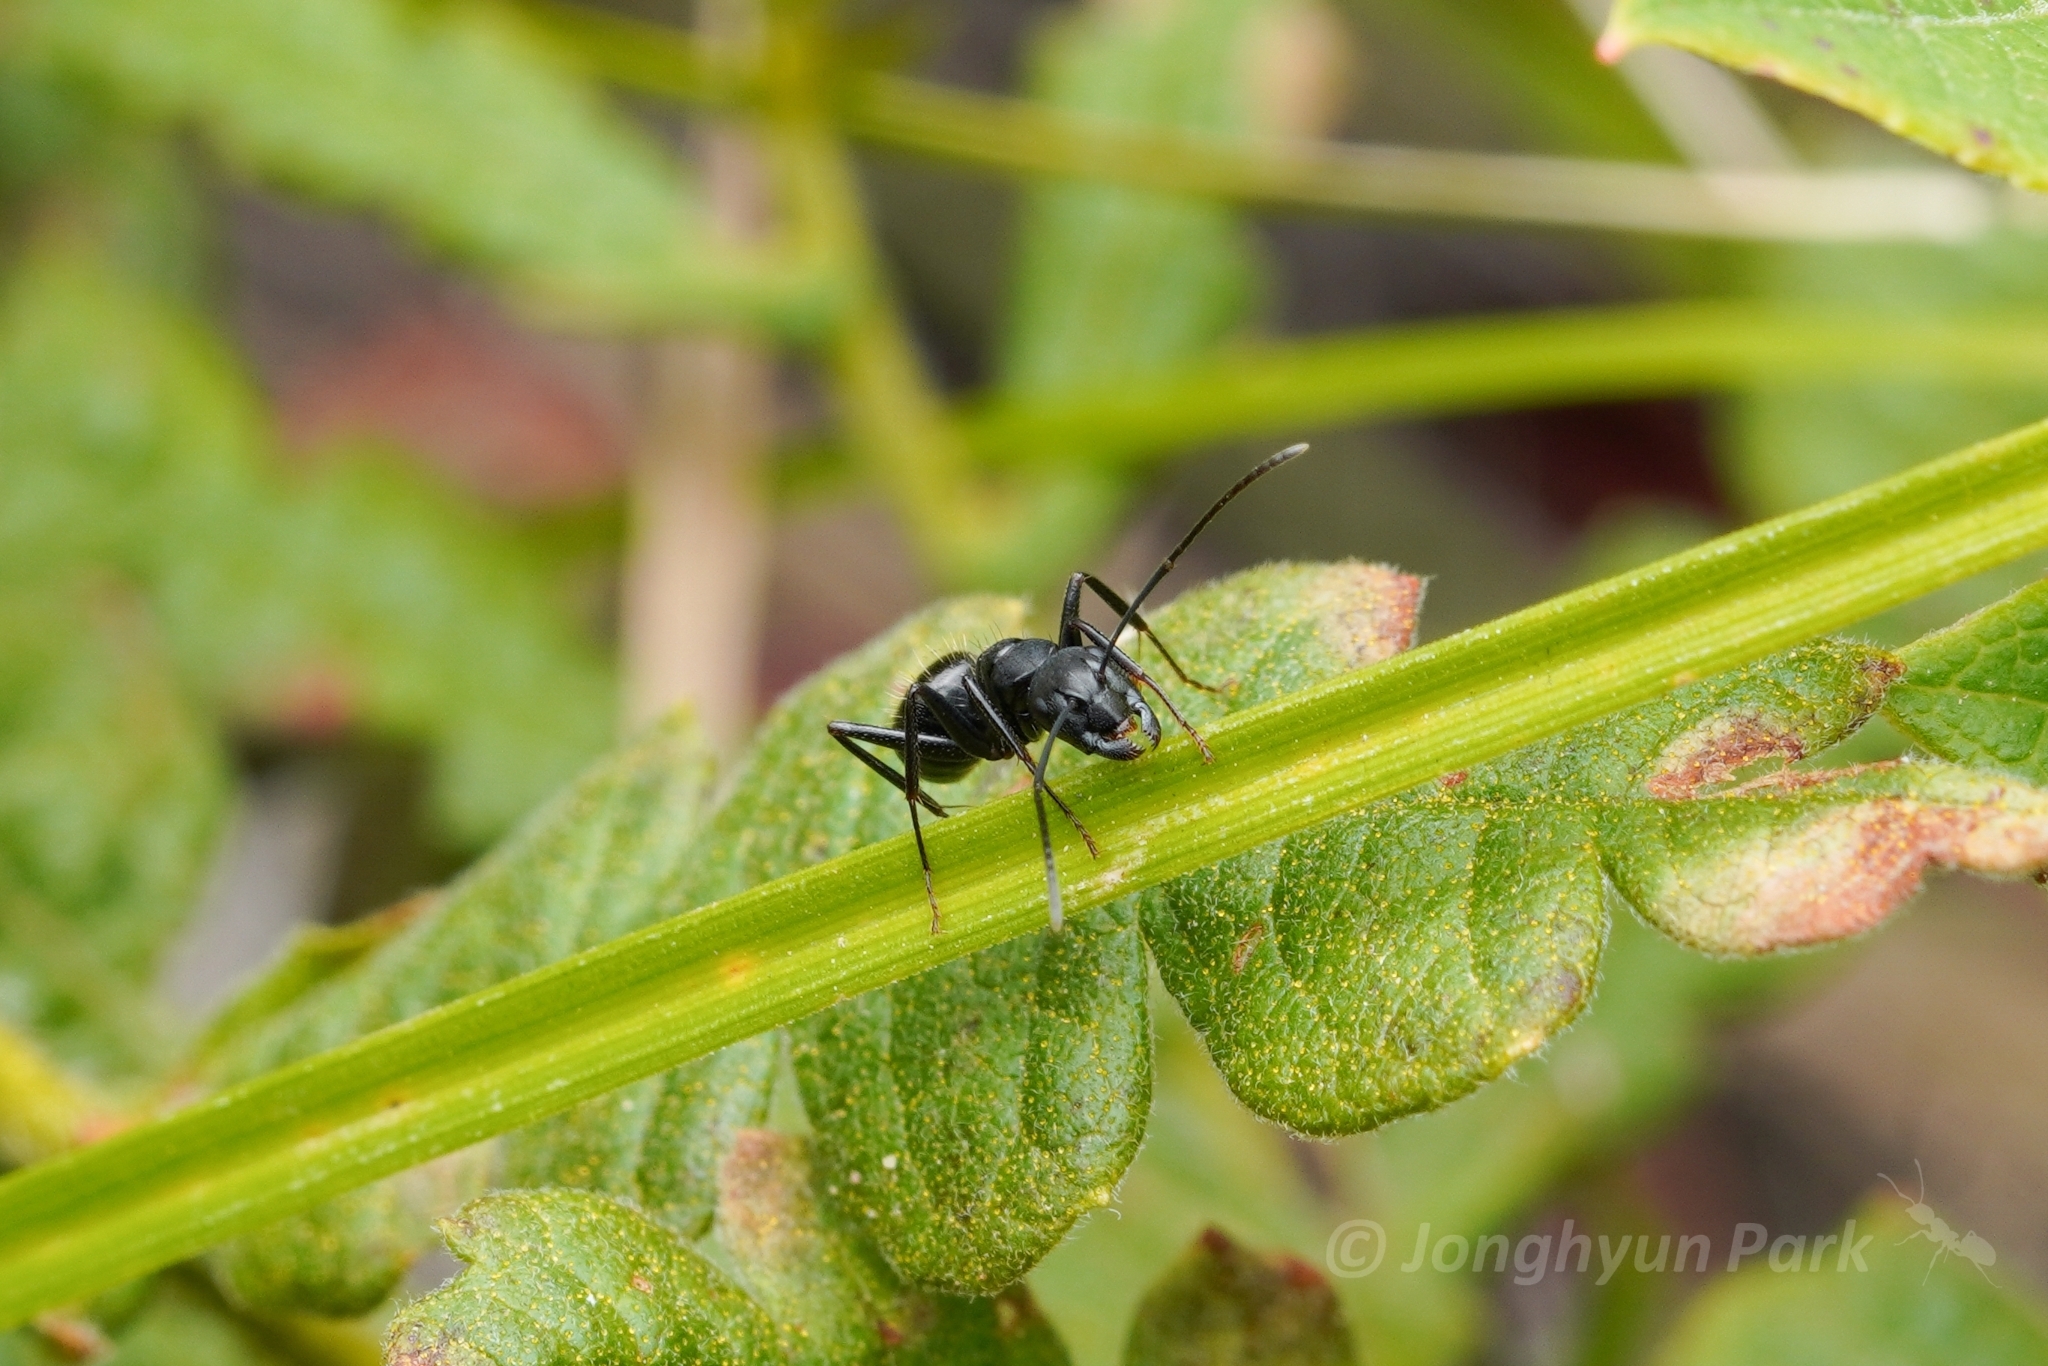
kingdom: Animalia
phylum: Arthropoda
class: Insecta
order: Hymenoptera
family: Formicidae
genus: Camponotus
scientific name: Camponotus pennsylvanicus
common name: Black carpenter ant
